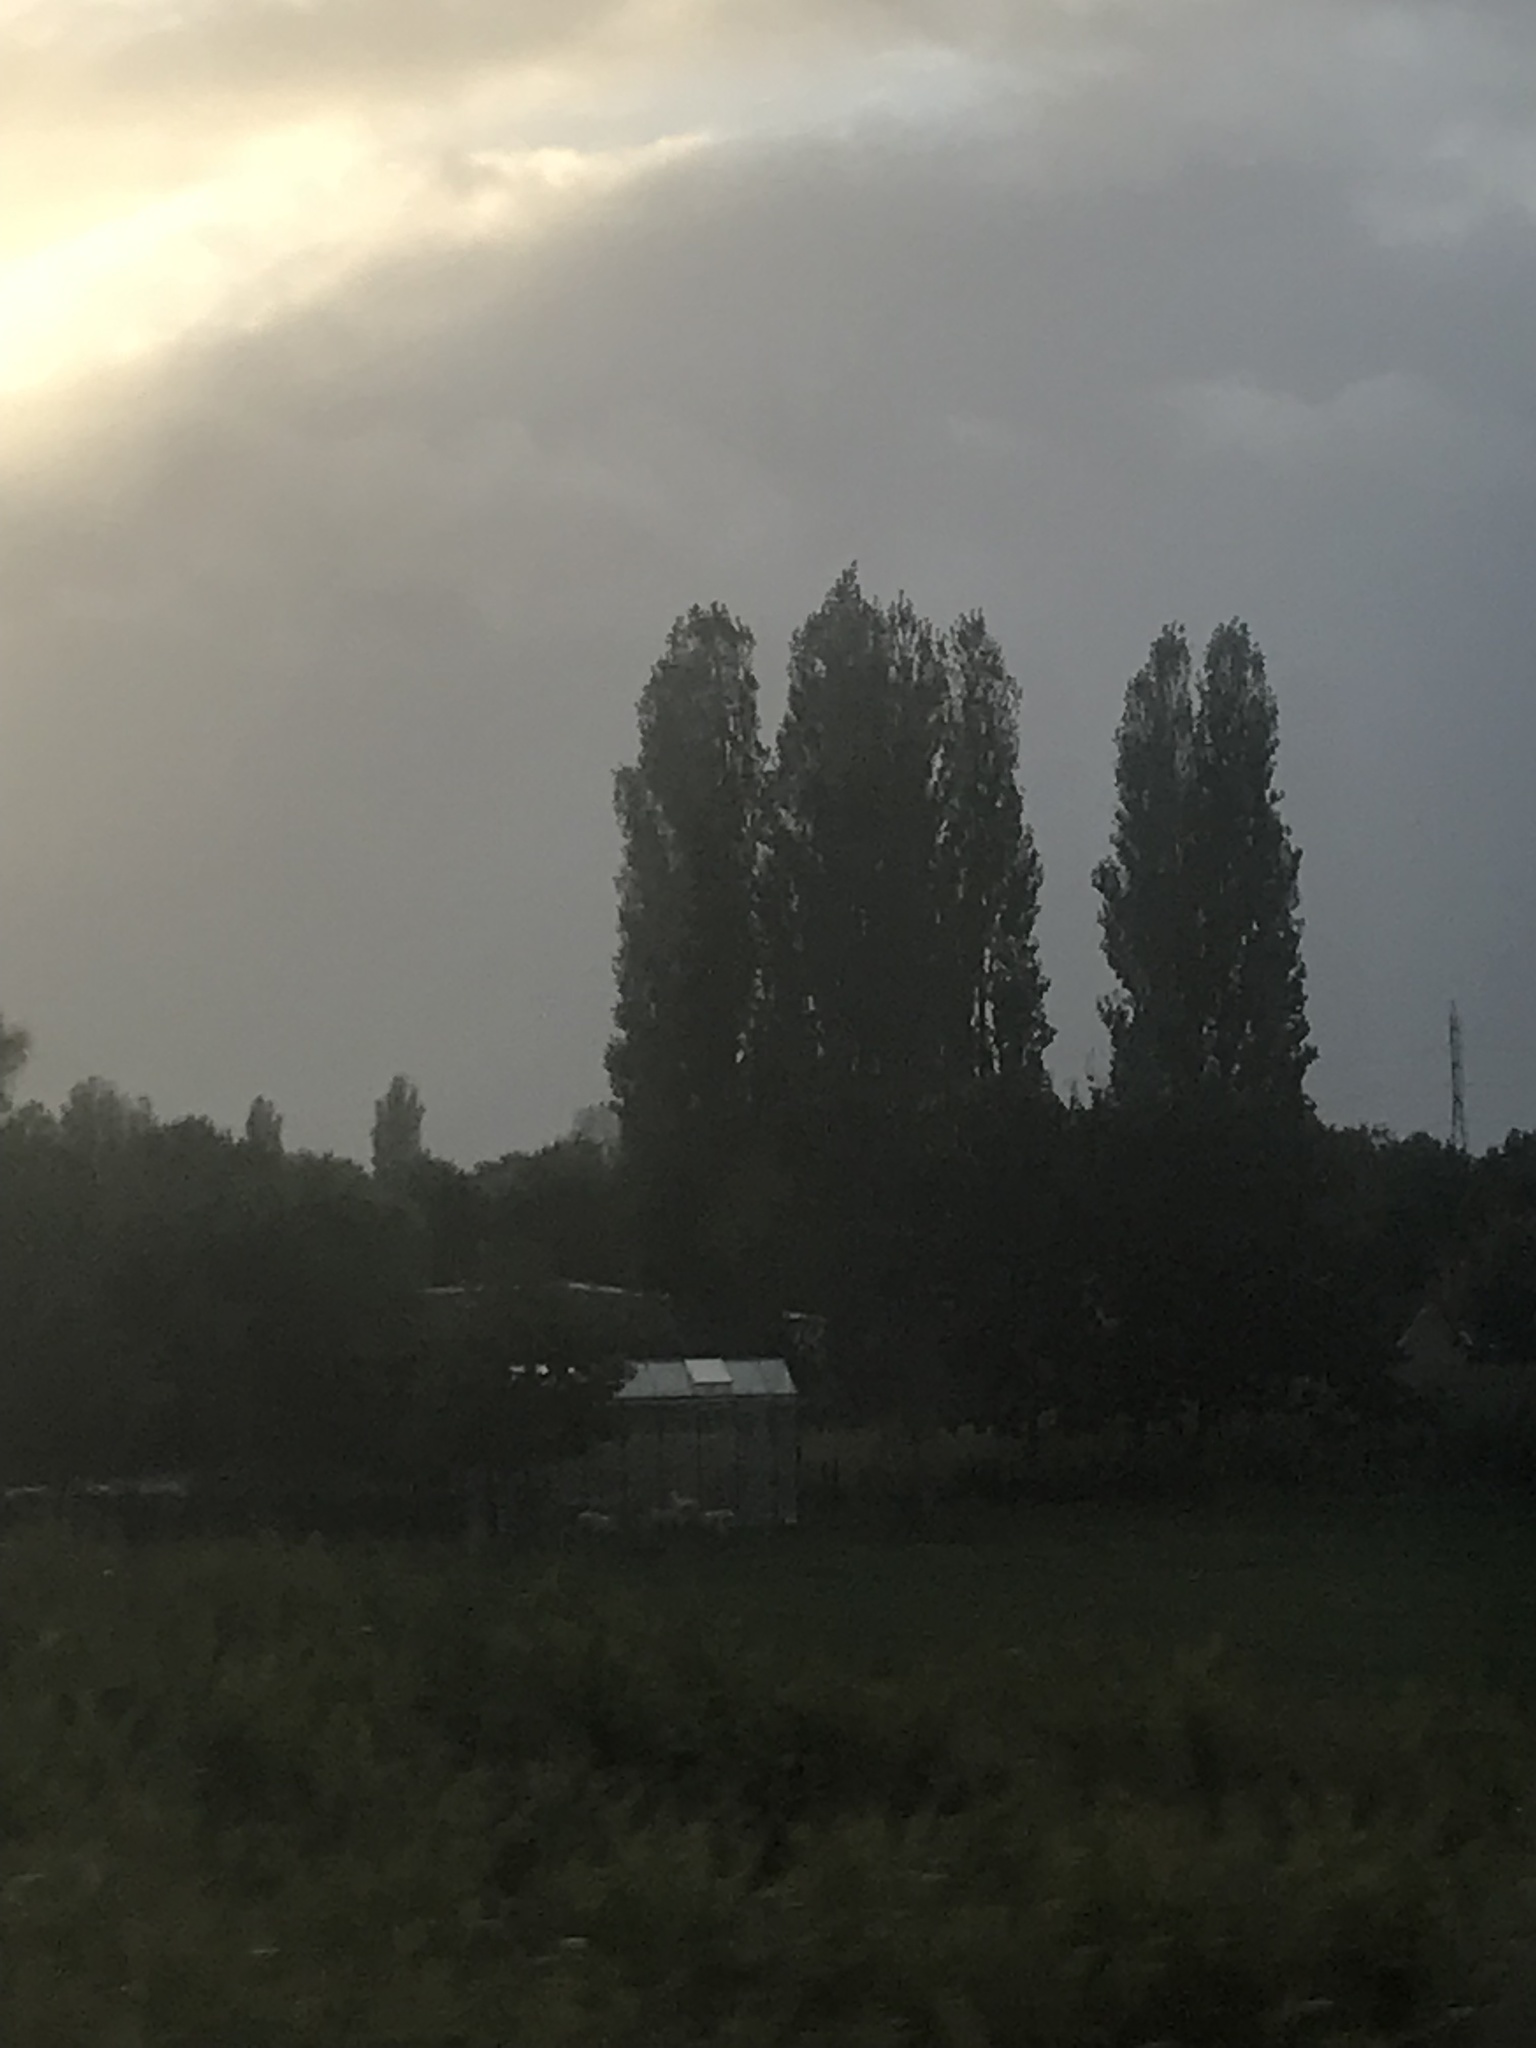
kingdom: Plantae
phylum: Tracheophyta
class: Magnoliopsida
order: Malpighiales
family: Salicaceae
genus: Populus
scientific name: Populus nigra
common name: Black poplar
